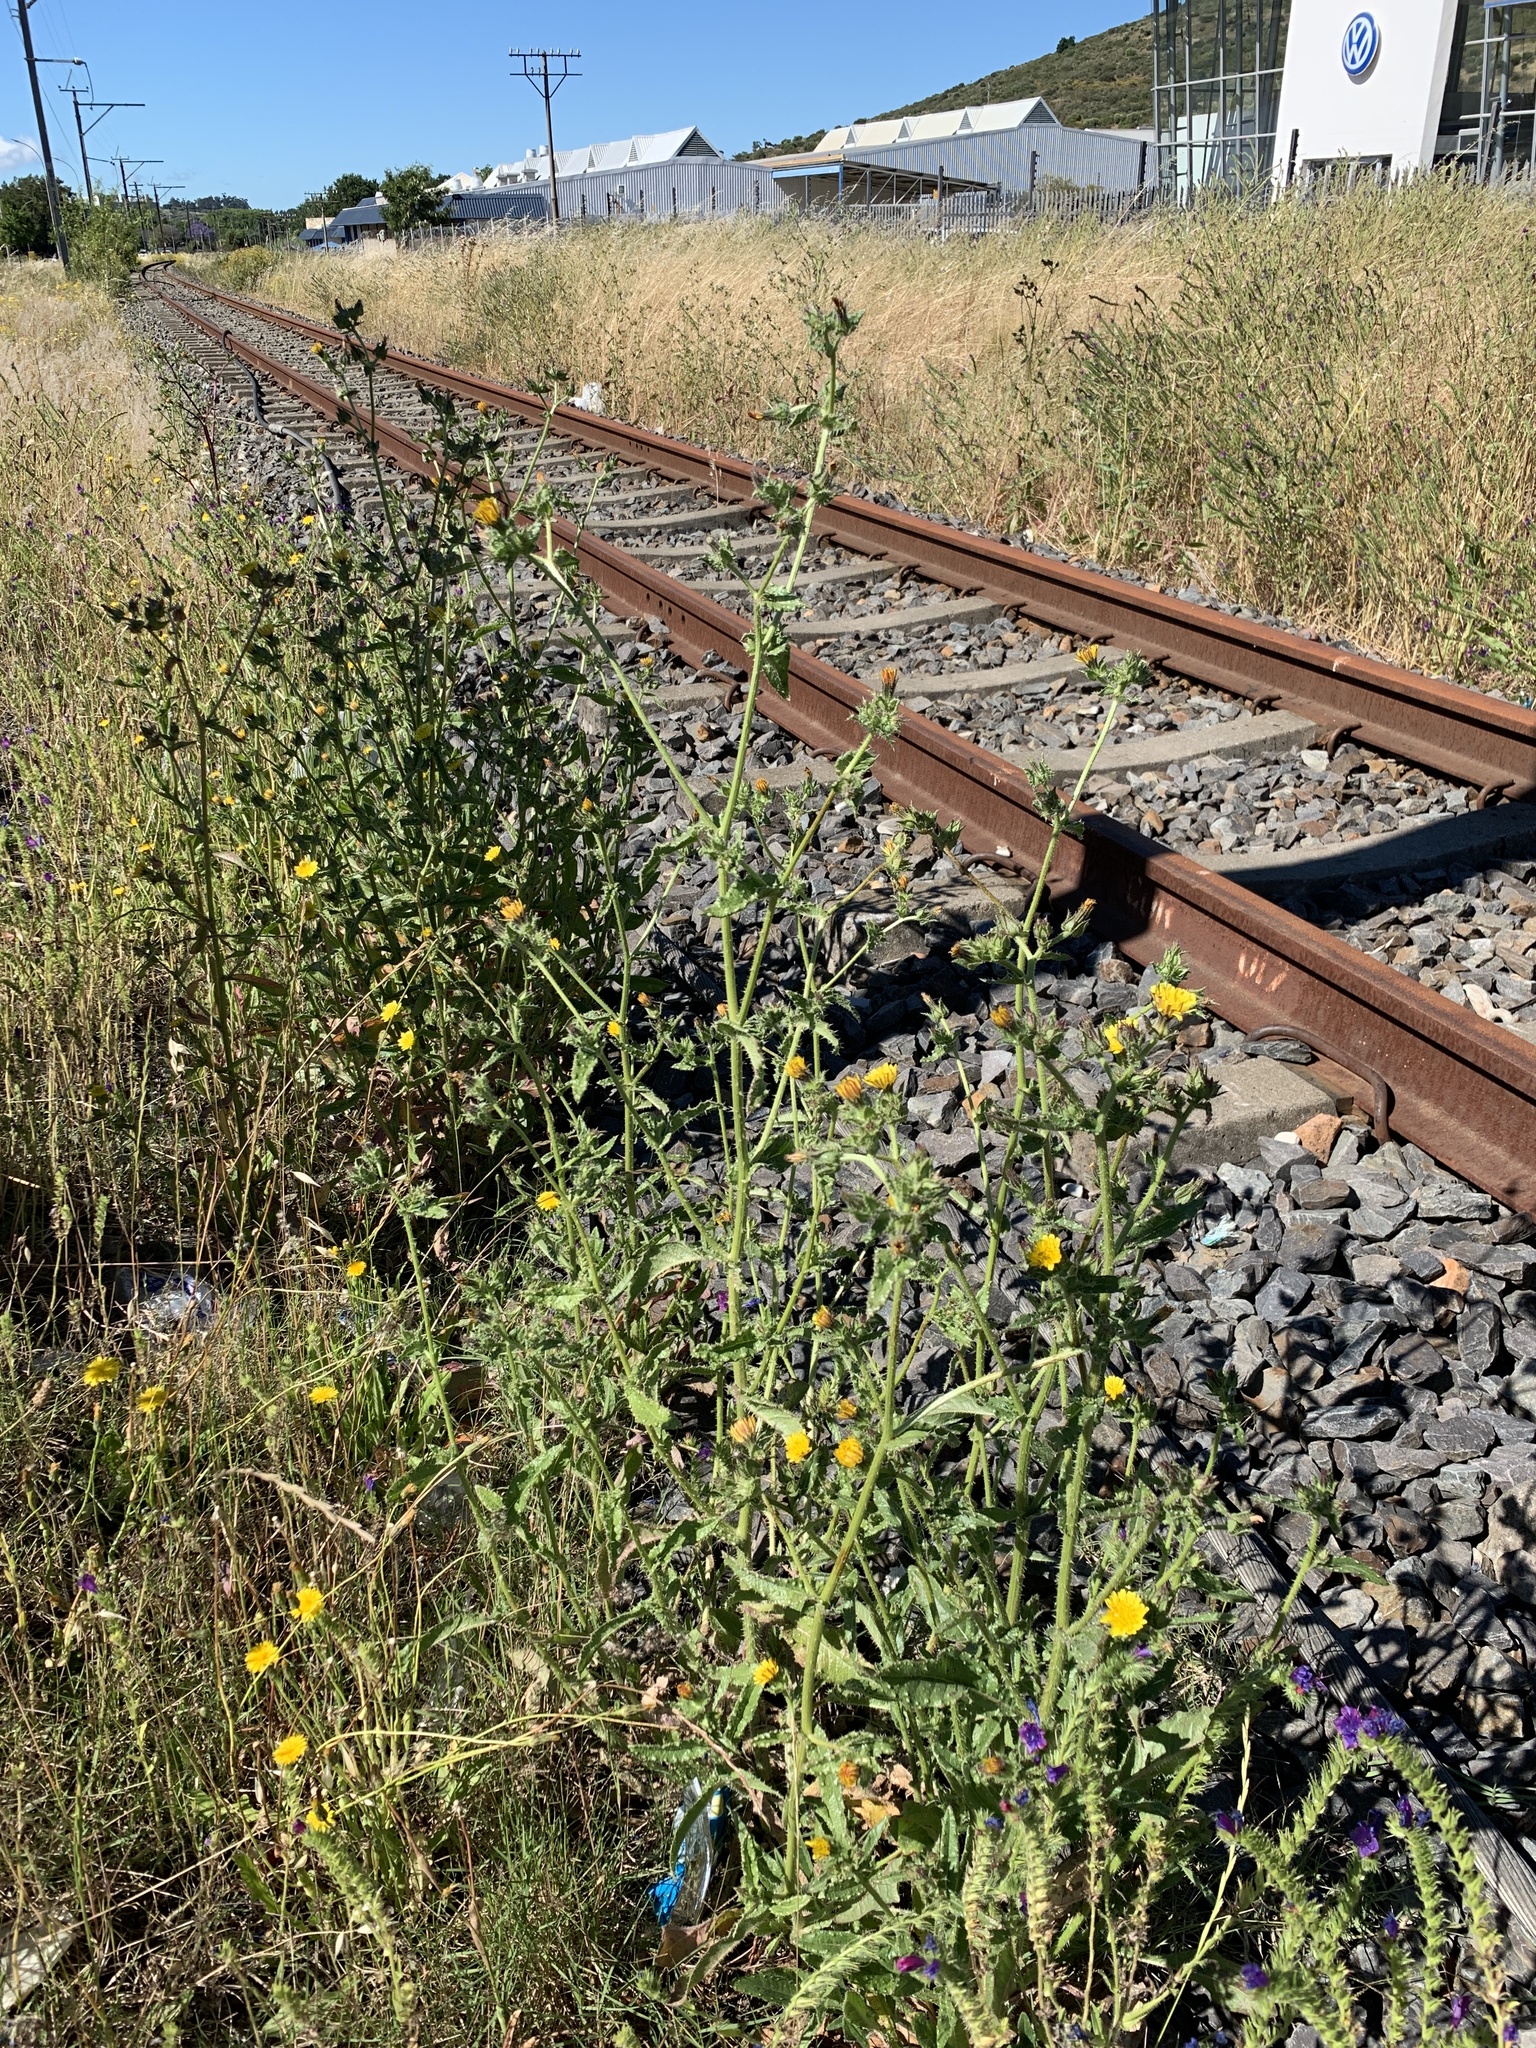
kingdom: Plantae
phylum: Tracheophyta
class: Magnoliopsida
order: Asterales
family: Asteraceae
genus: Helminthotheca
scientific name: Helminthotheca echioides
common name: Ox-tongue
